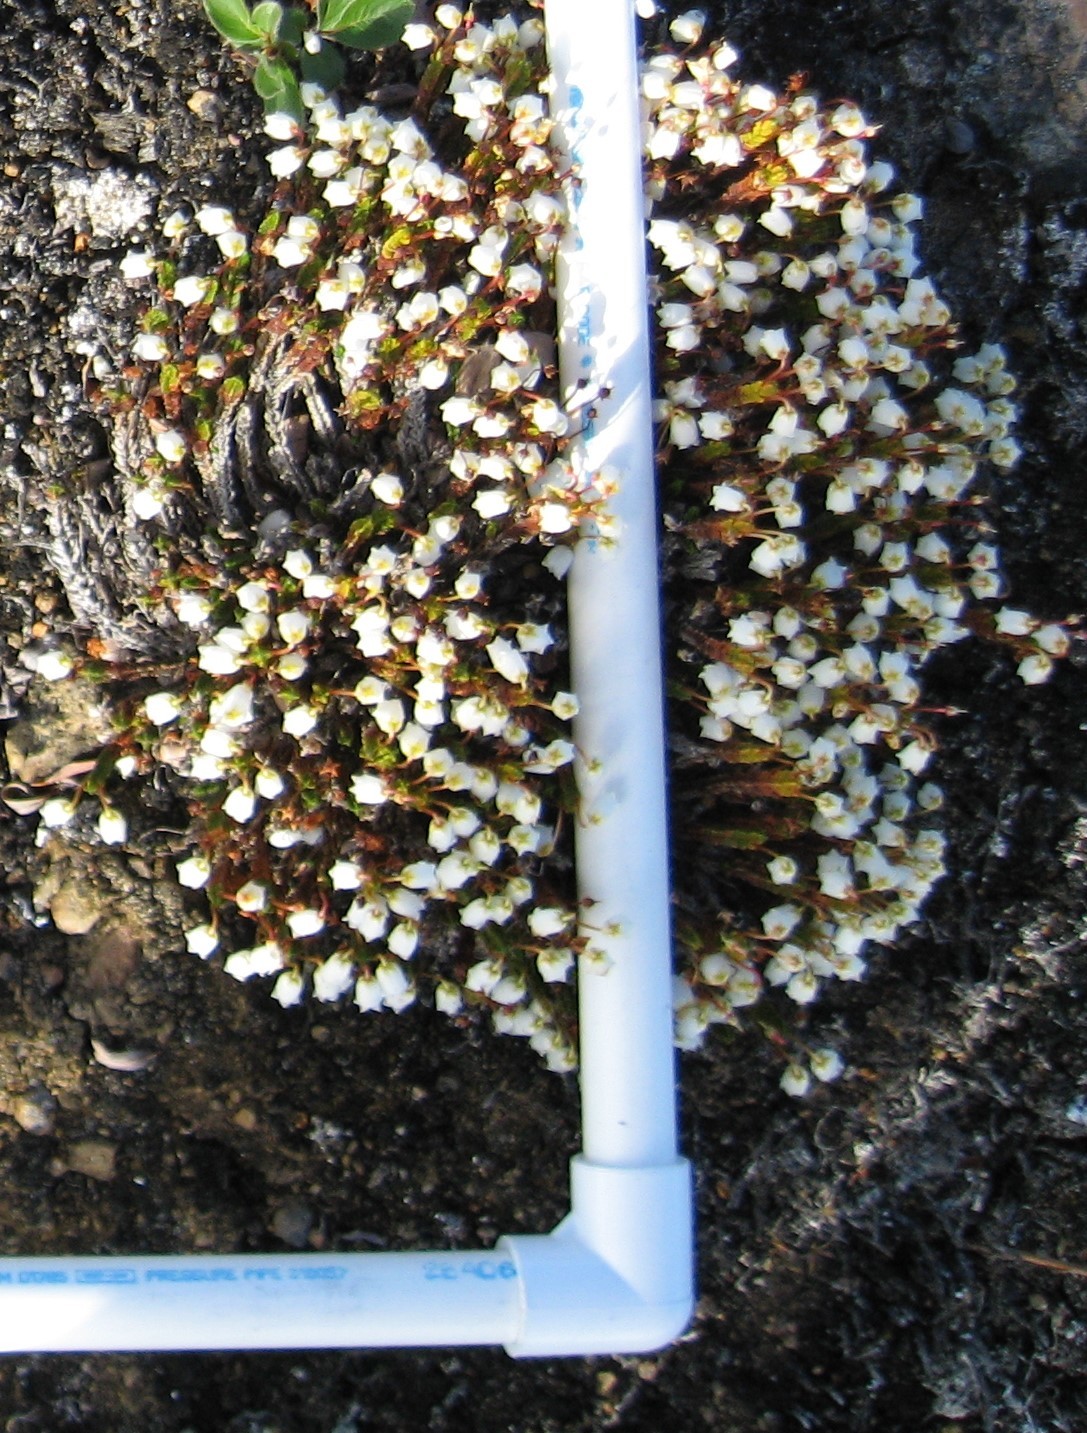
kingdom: Plantae
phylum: Tracheophyta
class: Magnoliopsida
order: Ericales
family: Ericaceae
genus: Cassiope
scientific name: Cassiope tetragona
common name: Arctic bell heather
